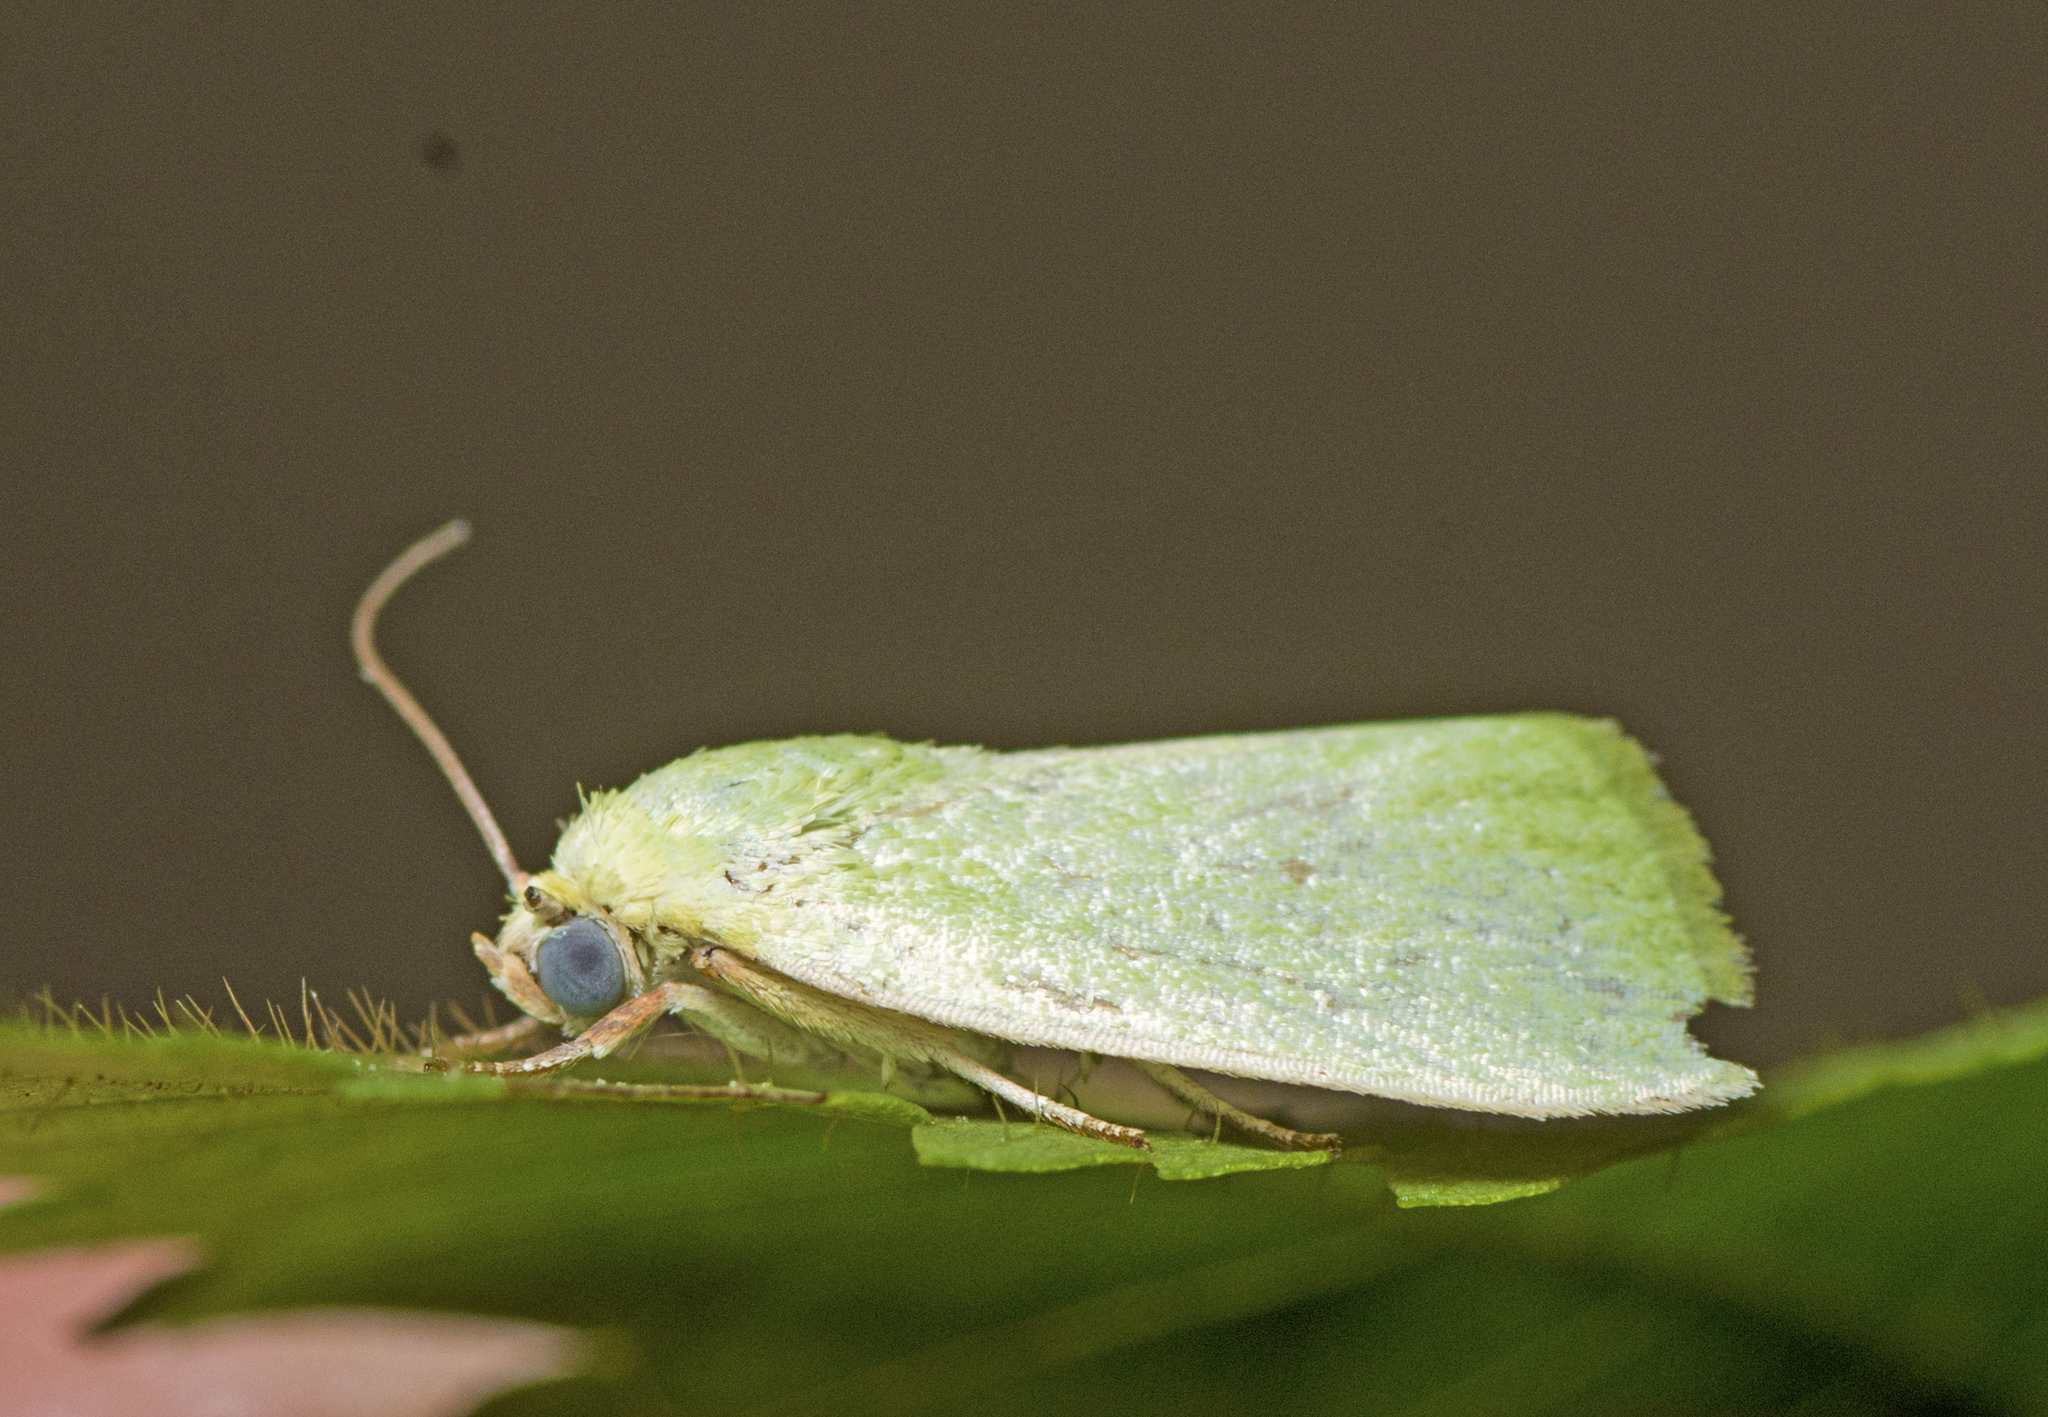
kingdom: Animalia
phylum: Arthropoda
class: Insecta
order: Lepidoptera
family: Nolidae
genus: Earias
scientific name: Earias smaragdina
